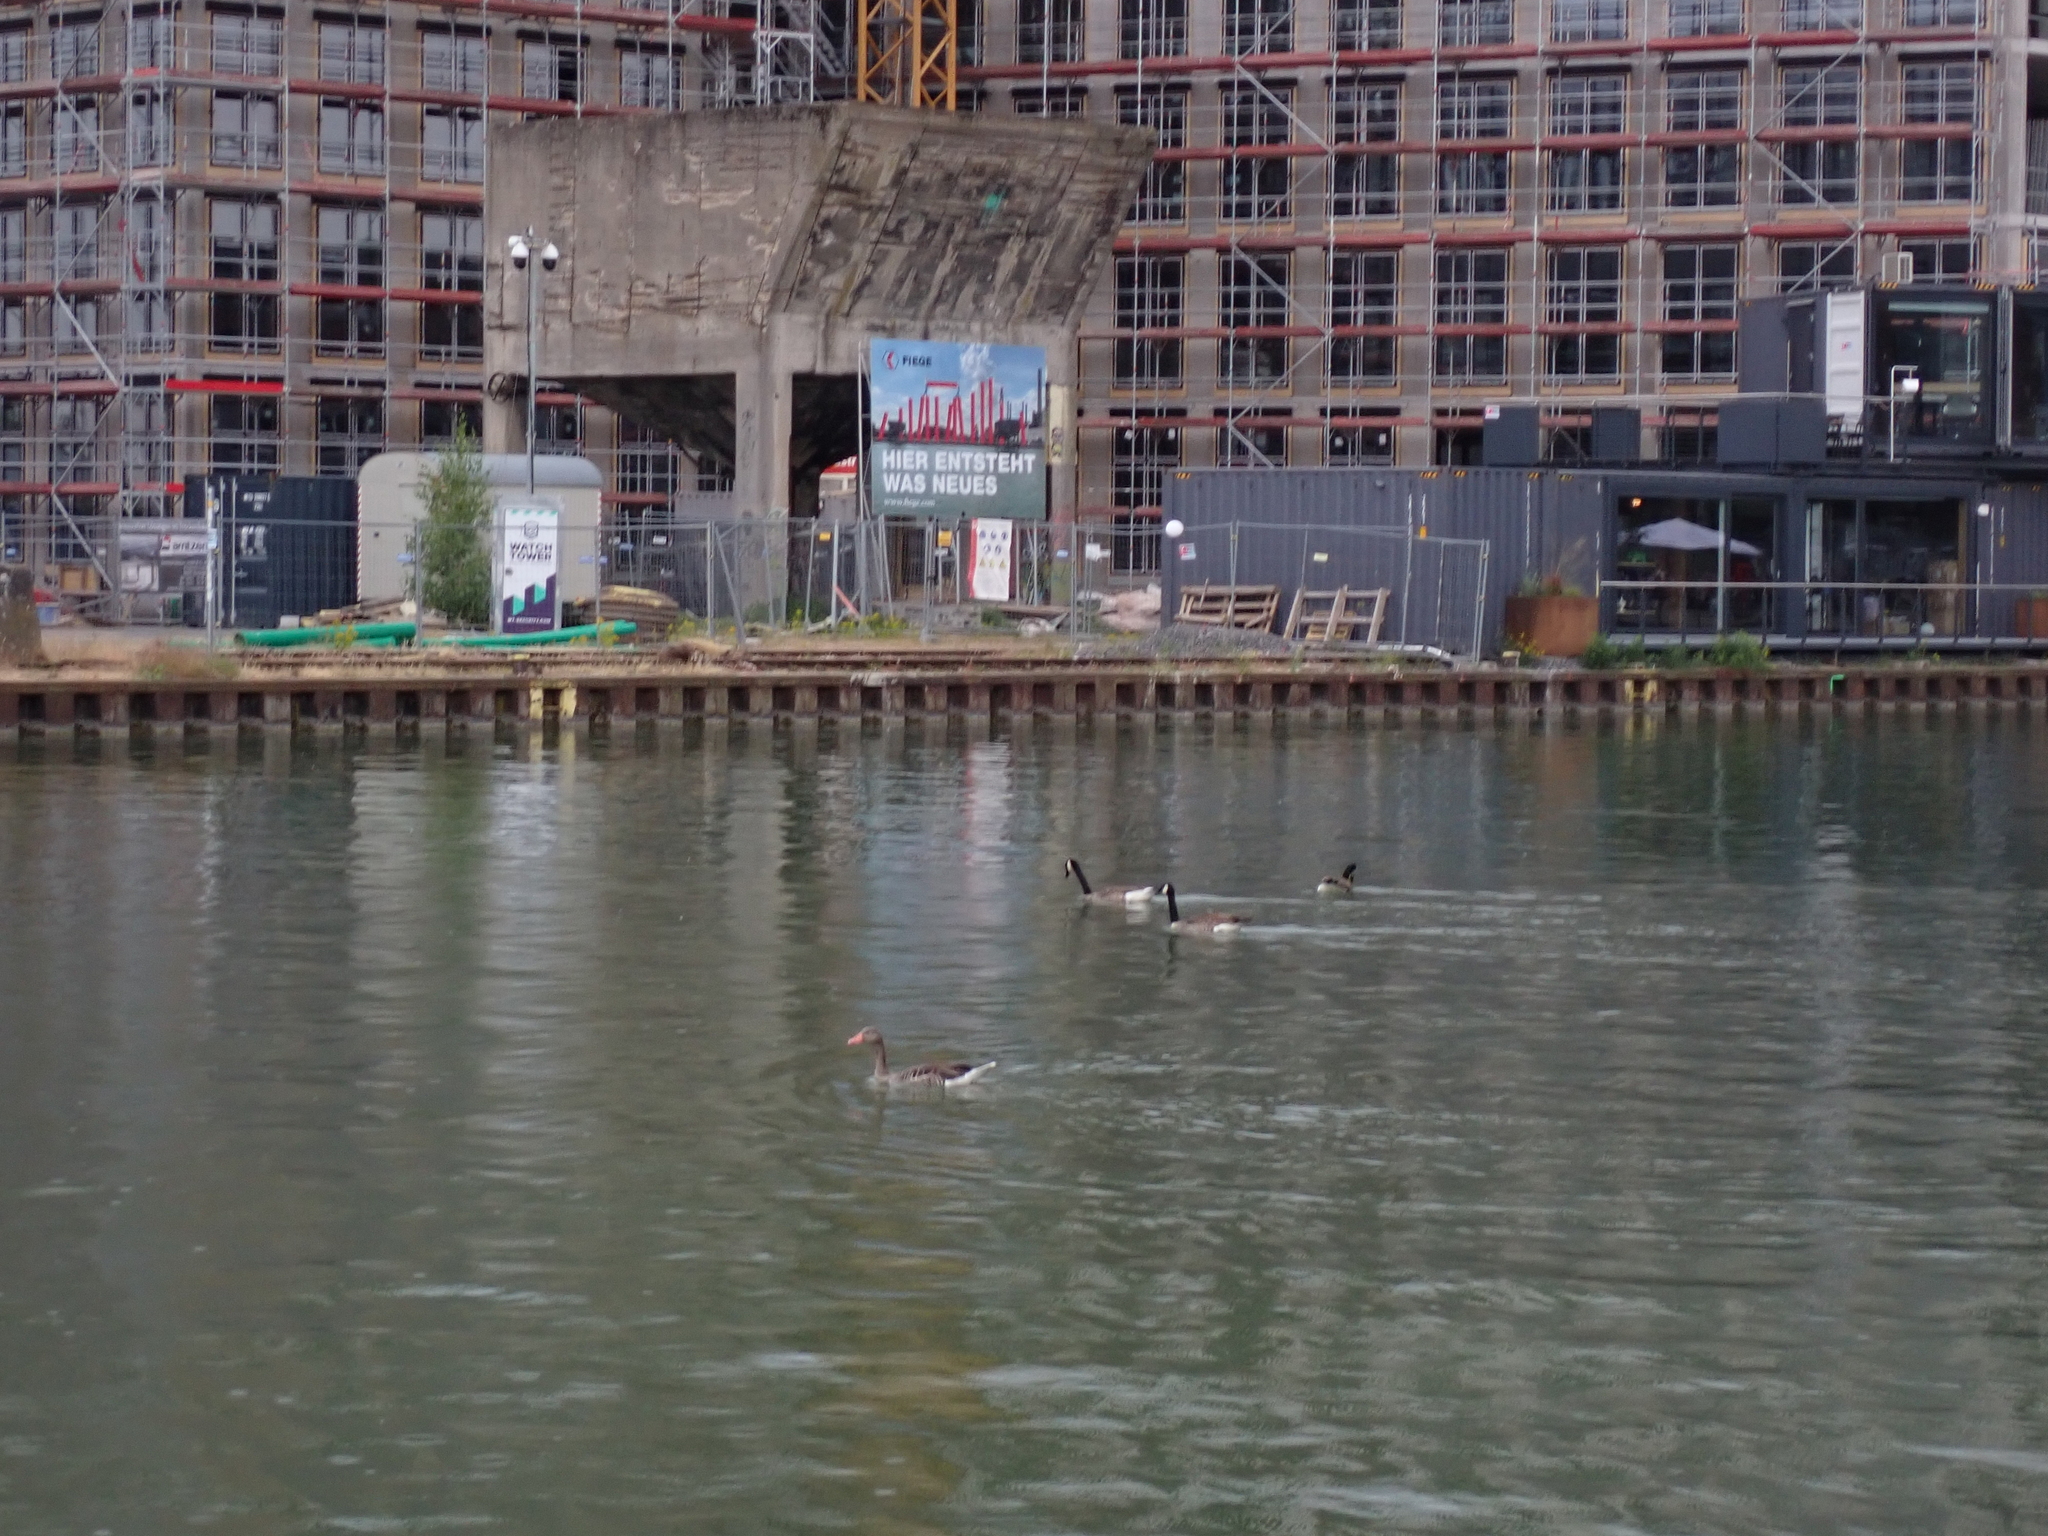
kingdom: Animalia
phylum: Chordata
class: Aves
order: Anseriformes
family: Anatidae
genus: Branta
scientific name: Branta canadensis
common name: Canada goose
